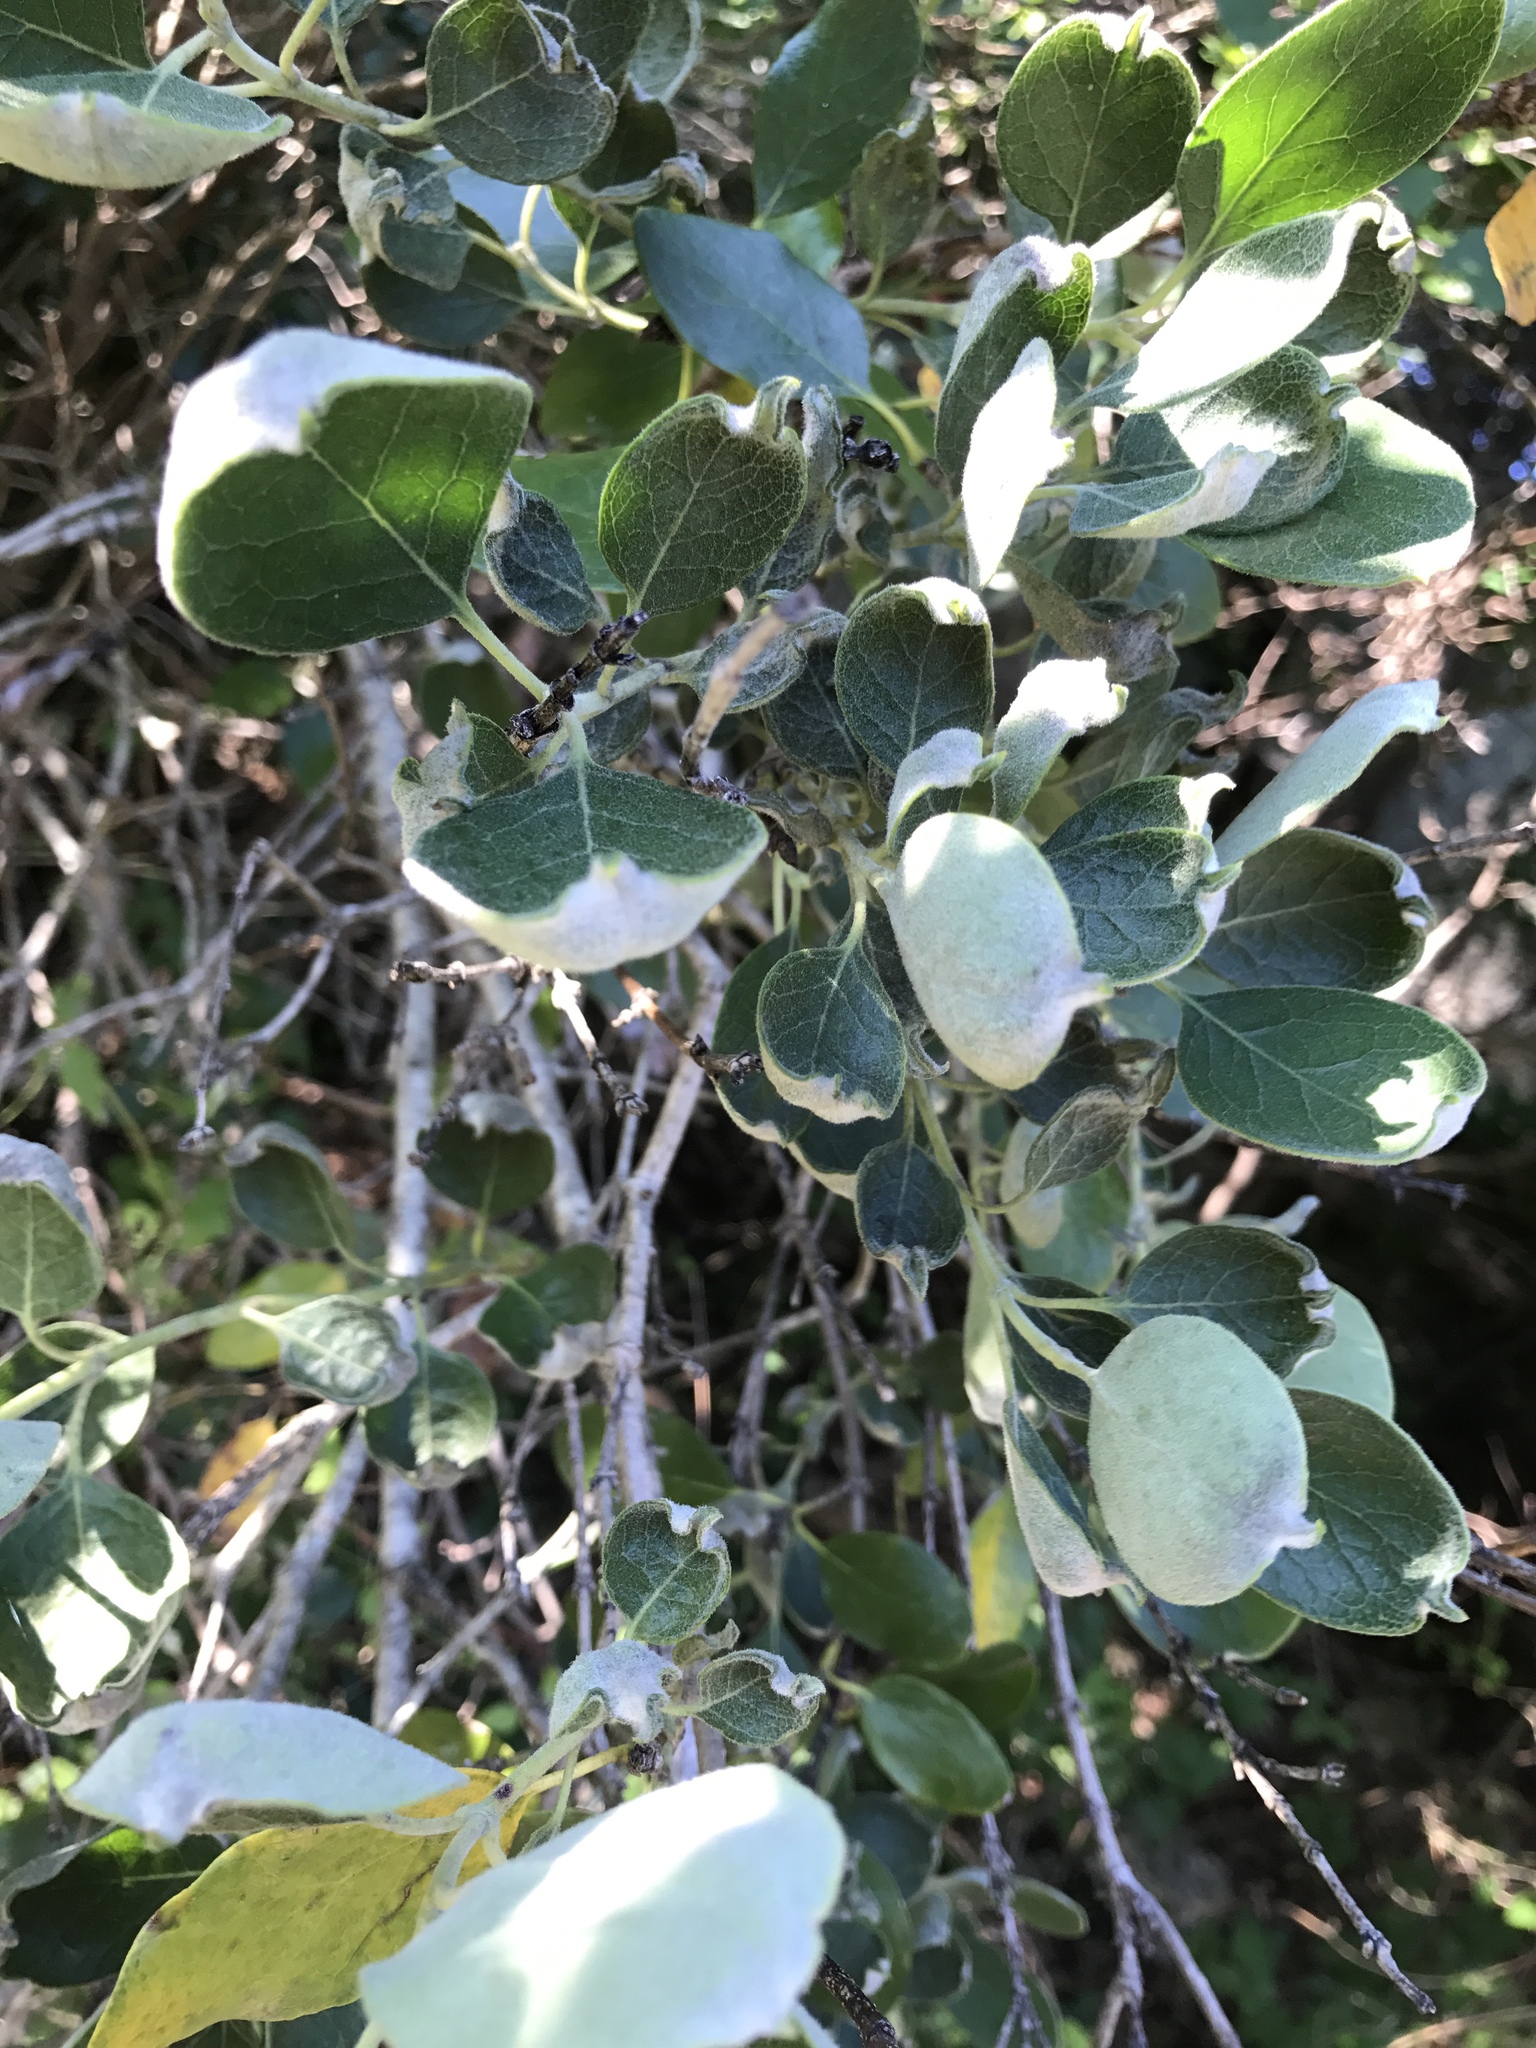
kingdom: Plantae
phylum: Tracheophyta
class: Magnoliopsida
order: Garryales
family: Garryaceae
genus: Garrya
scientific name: Garrya lindheimeri
